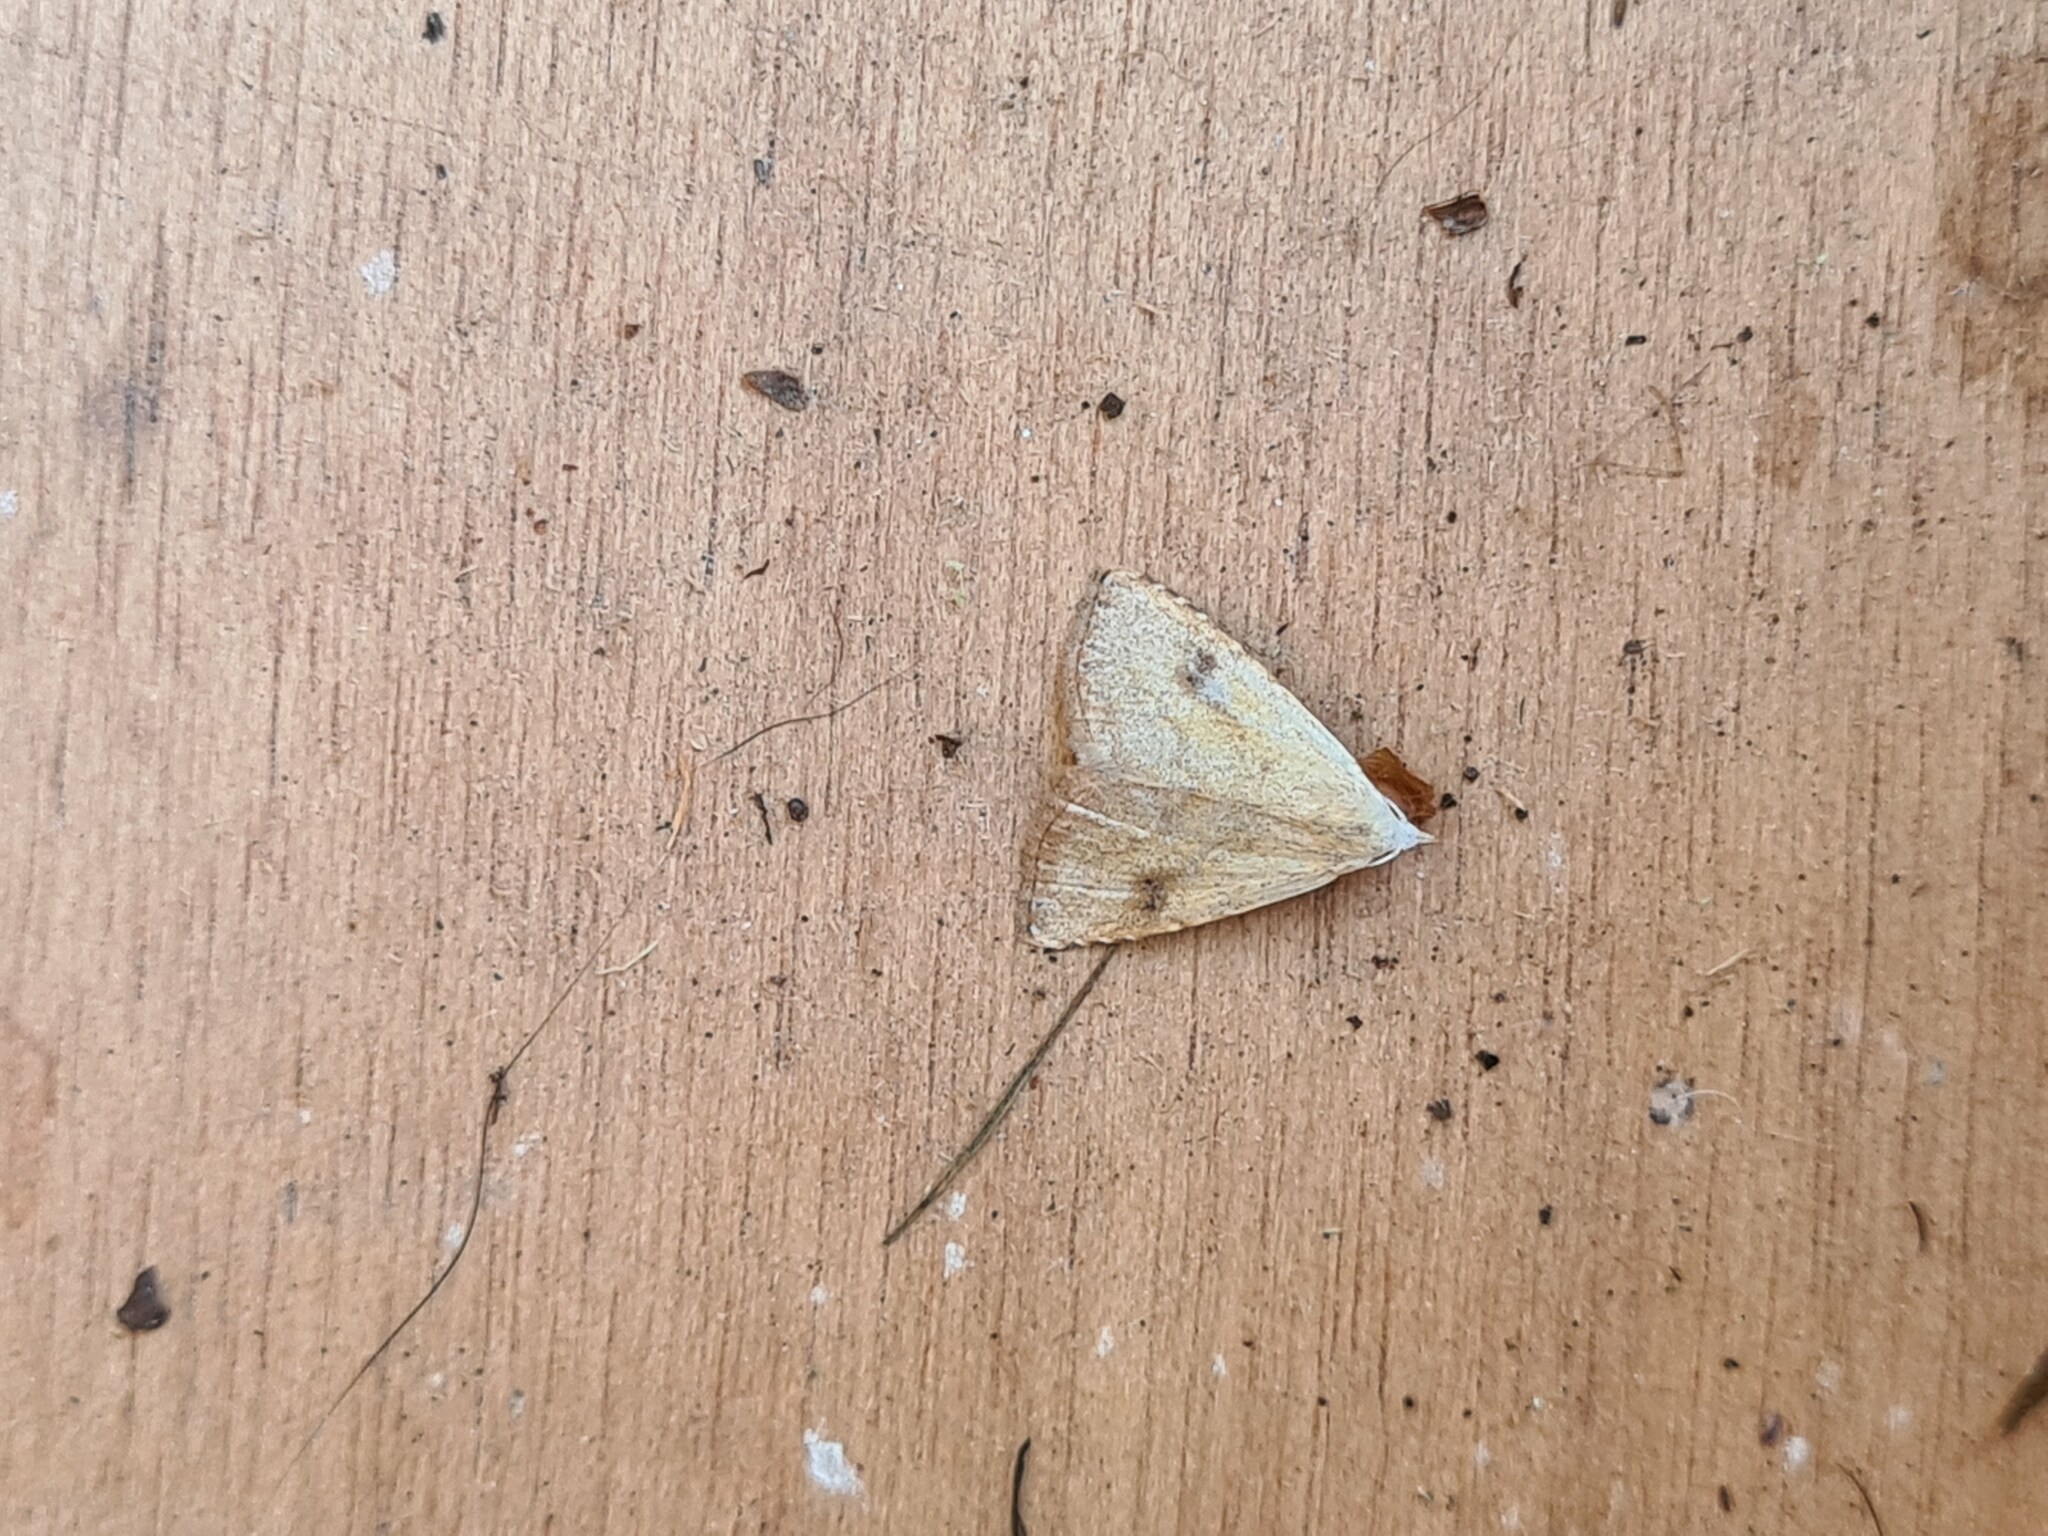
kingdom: Animalia
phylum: Arthropoda
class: Insecta
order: Lepidoptera
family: Erebidae
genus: Rivula
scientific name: Rivula sericealis
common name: Straw dot
